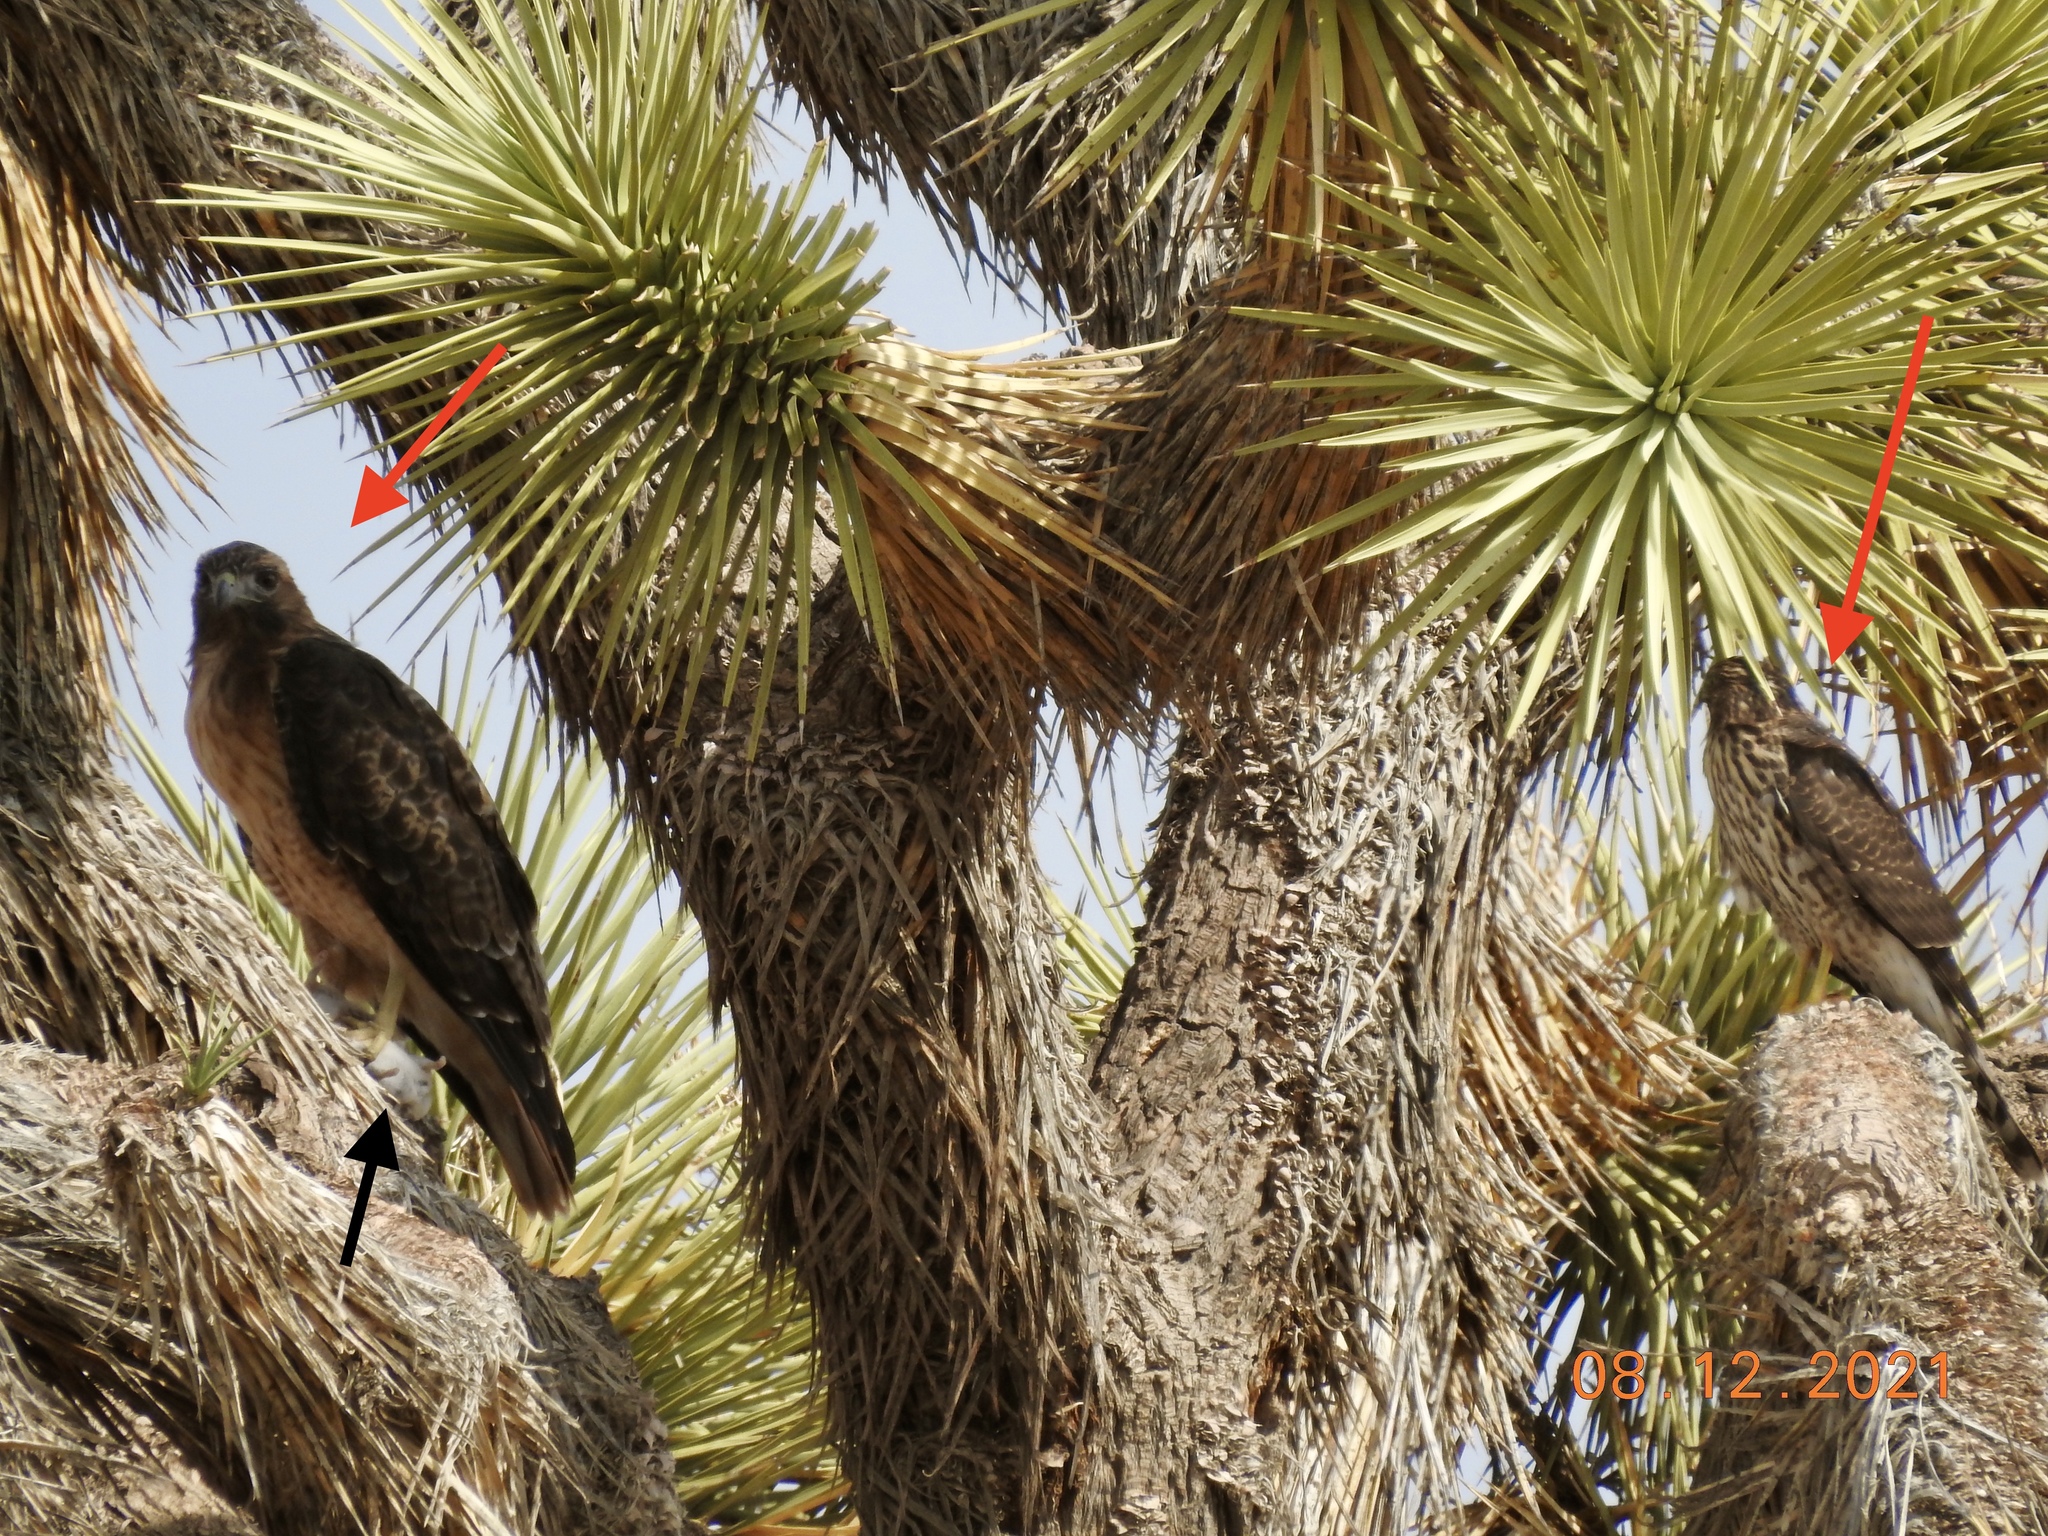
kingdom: Animalia
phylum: Chordata
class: Aves
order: Accipitriformes
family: Accipitridae
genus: Buteo
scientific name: Buteo jamaicensis
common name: Red-tailed hawk
